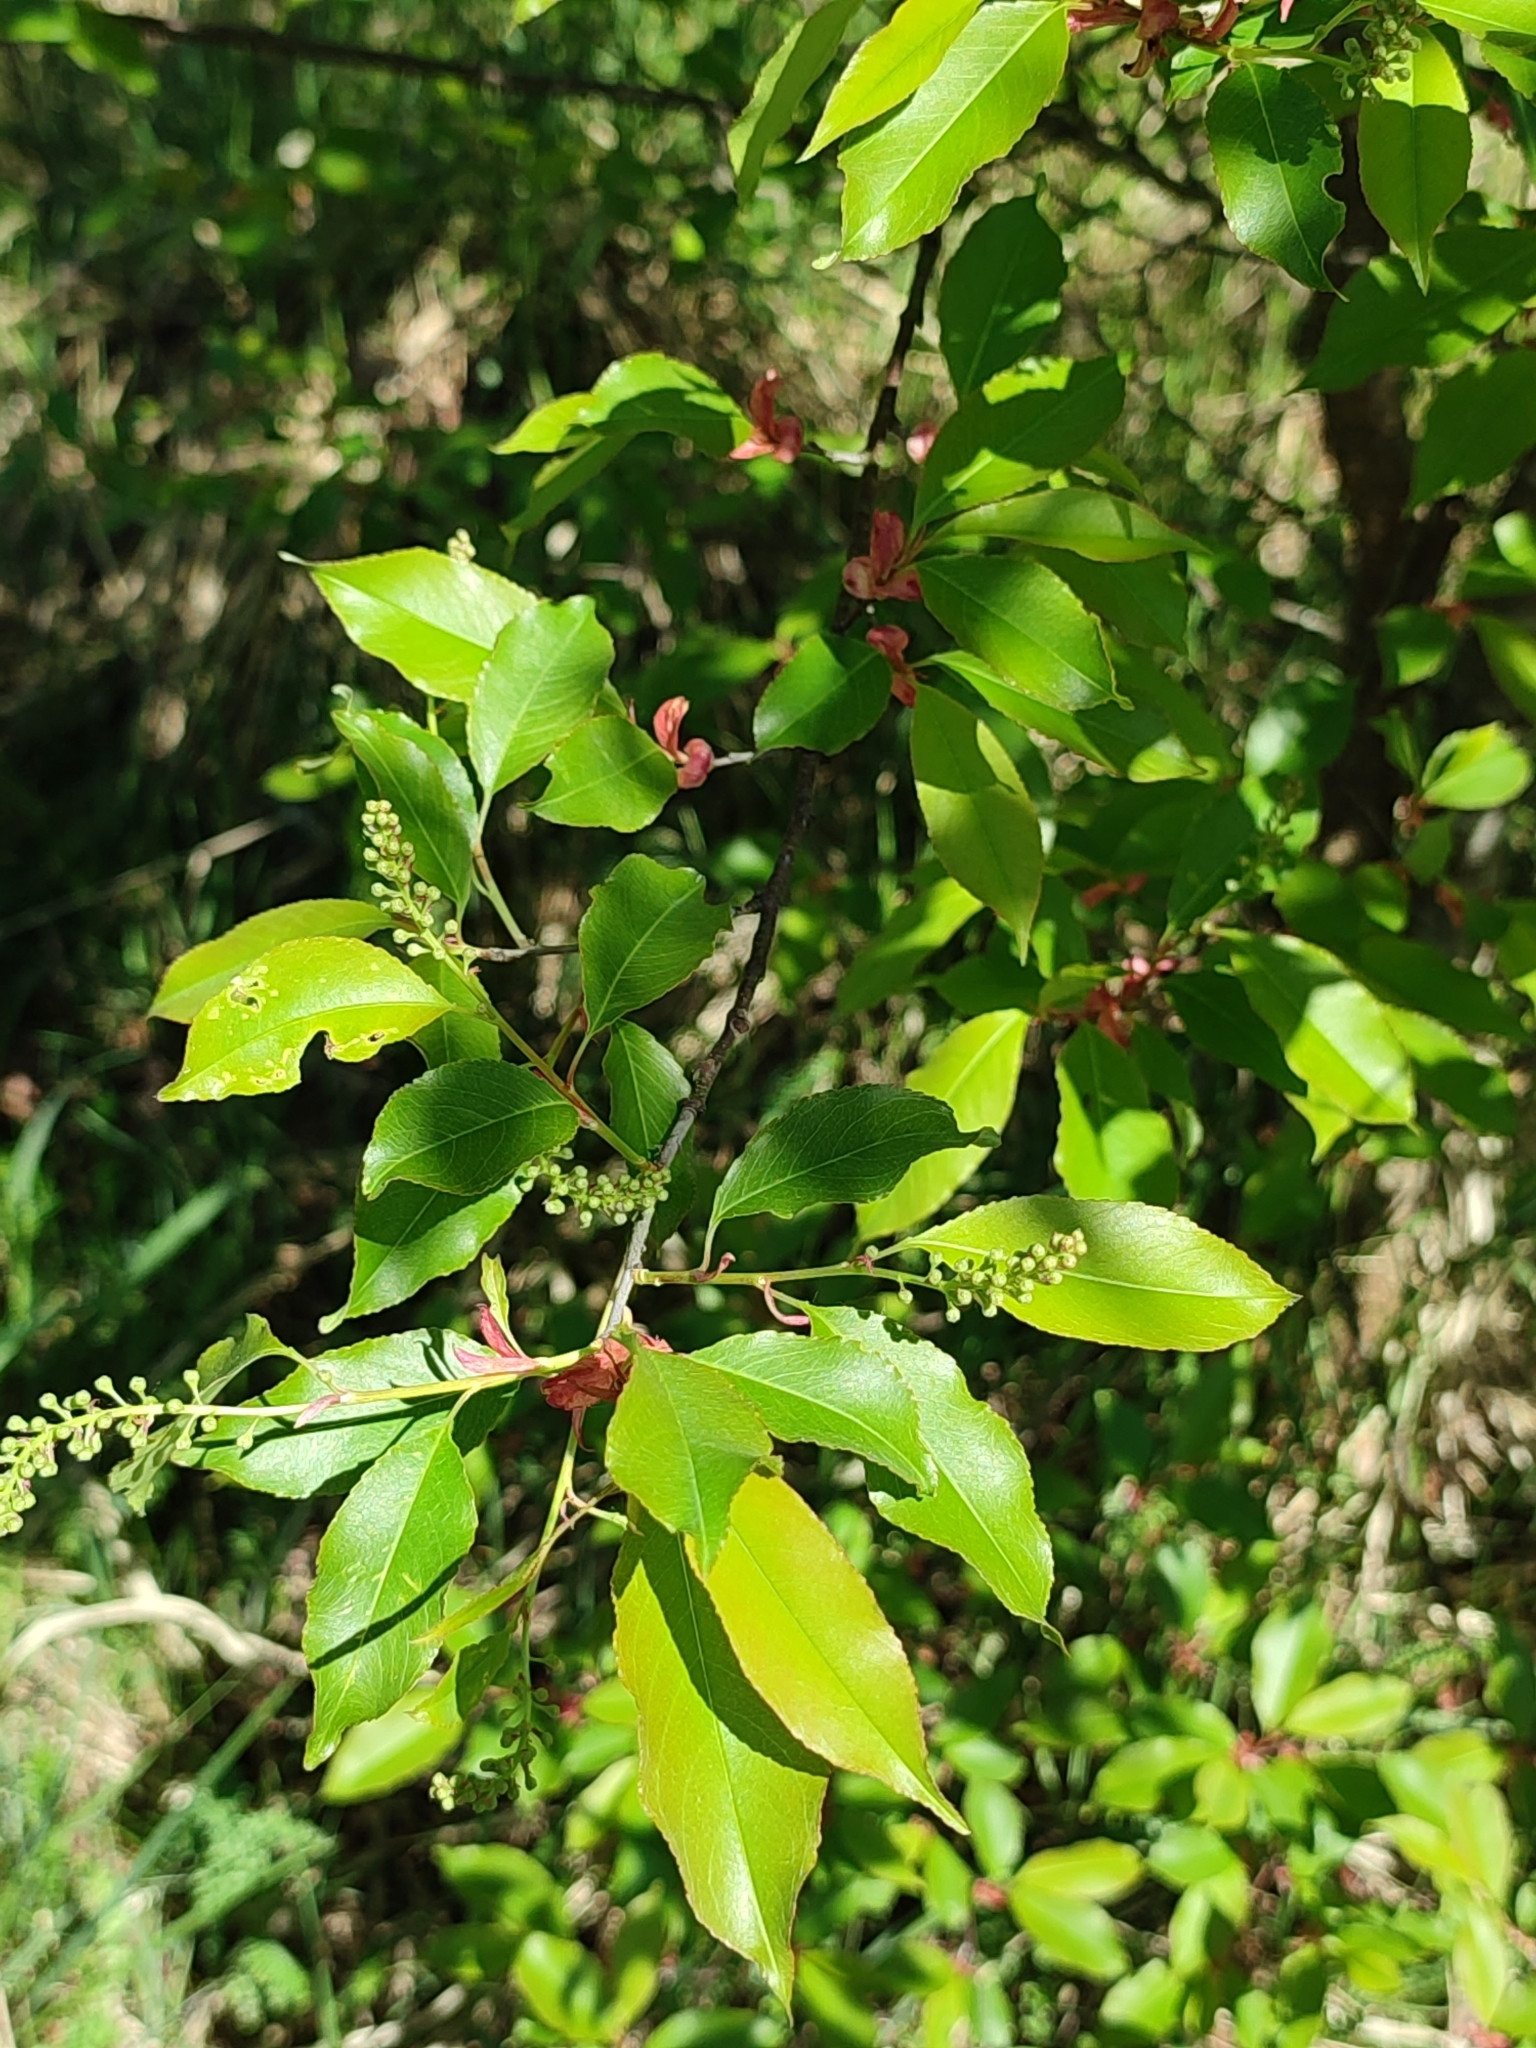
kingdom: Plantae
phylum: Tracheophyta
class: Magnoliopsida
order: Rosales
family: Rosaceae
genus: Prunus
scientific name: Prunus serotina
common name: Black cherry
